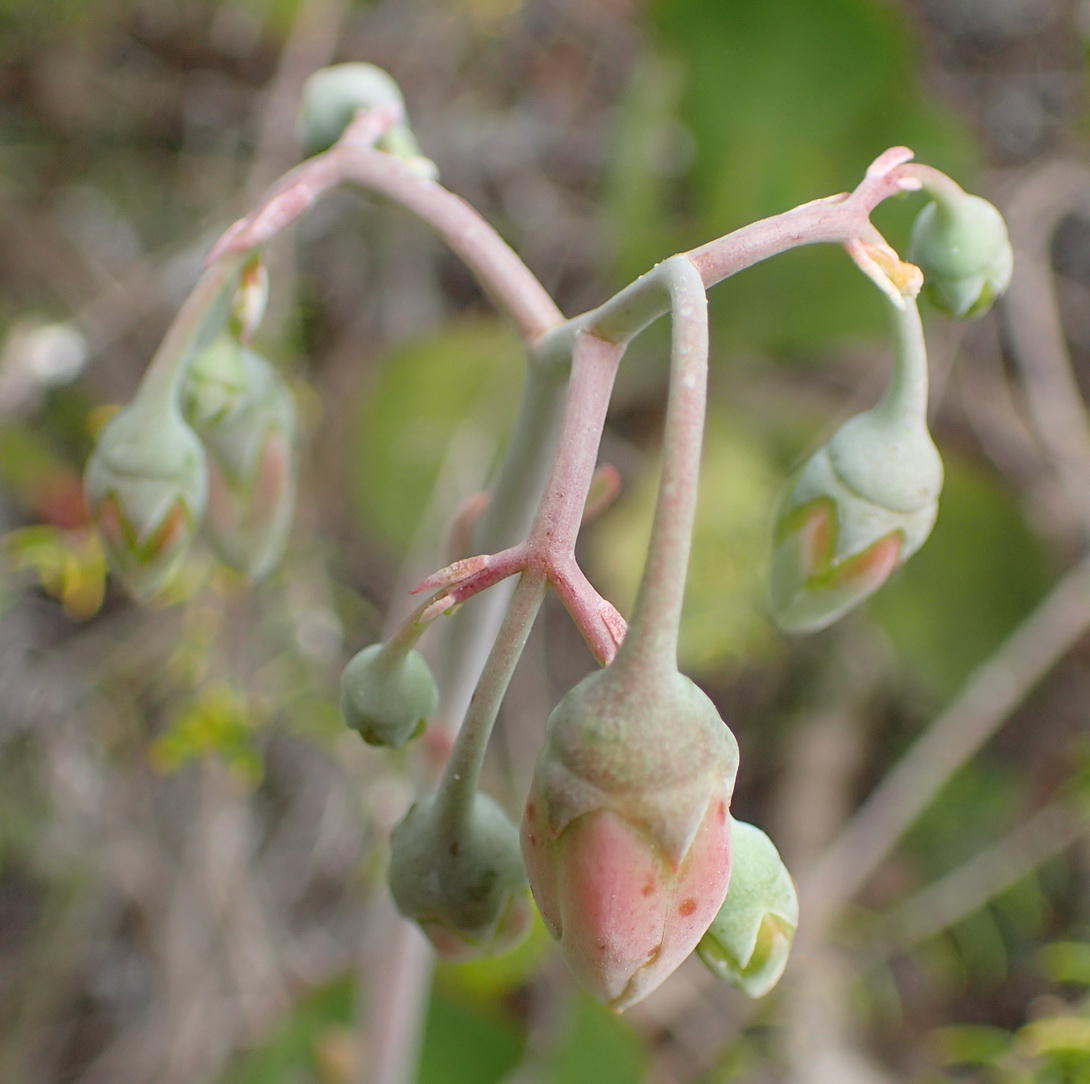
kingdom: Plantae
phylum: Tracheophyta
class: Magnoliopsida
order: Saxifragales
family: Crassulaceae
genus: Cotyledon
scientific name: Cotyledon orbiculata
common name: Pig's ear
